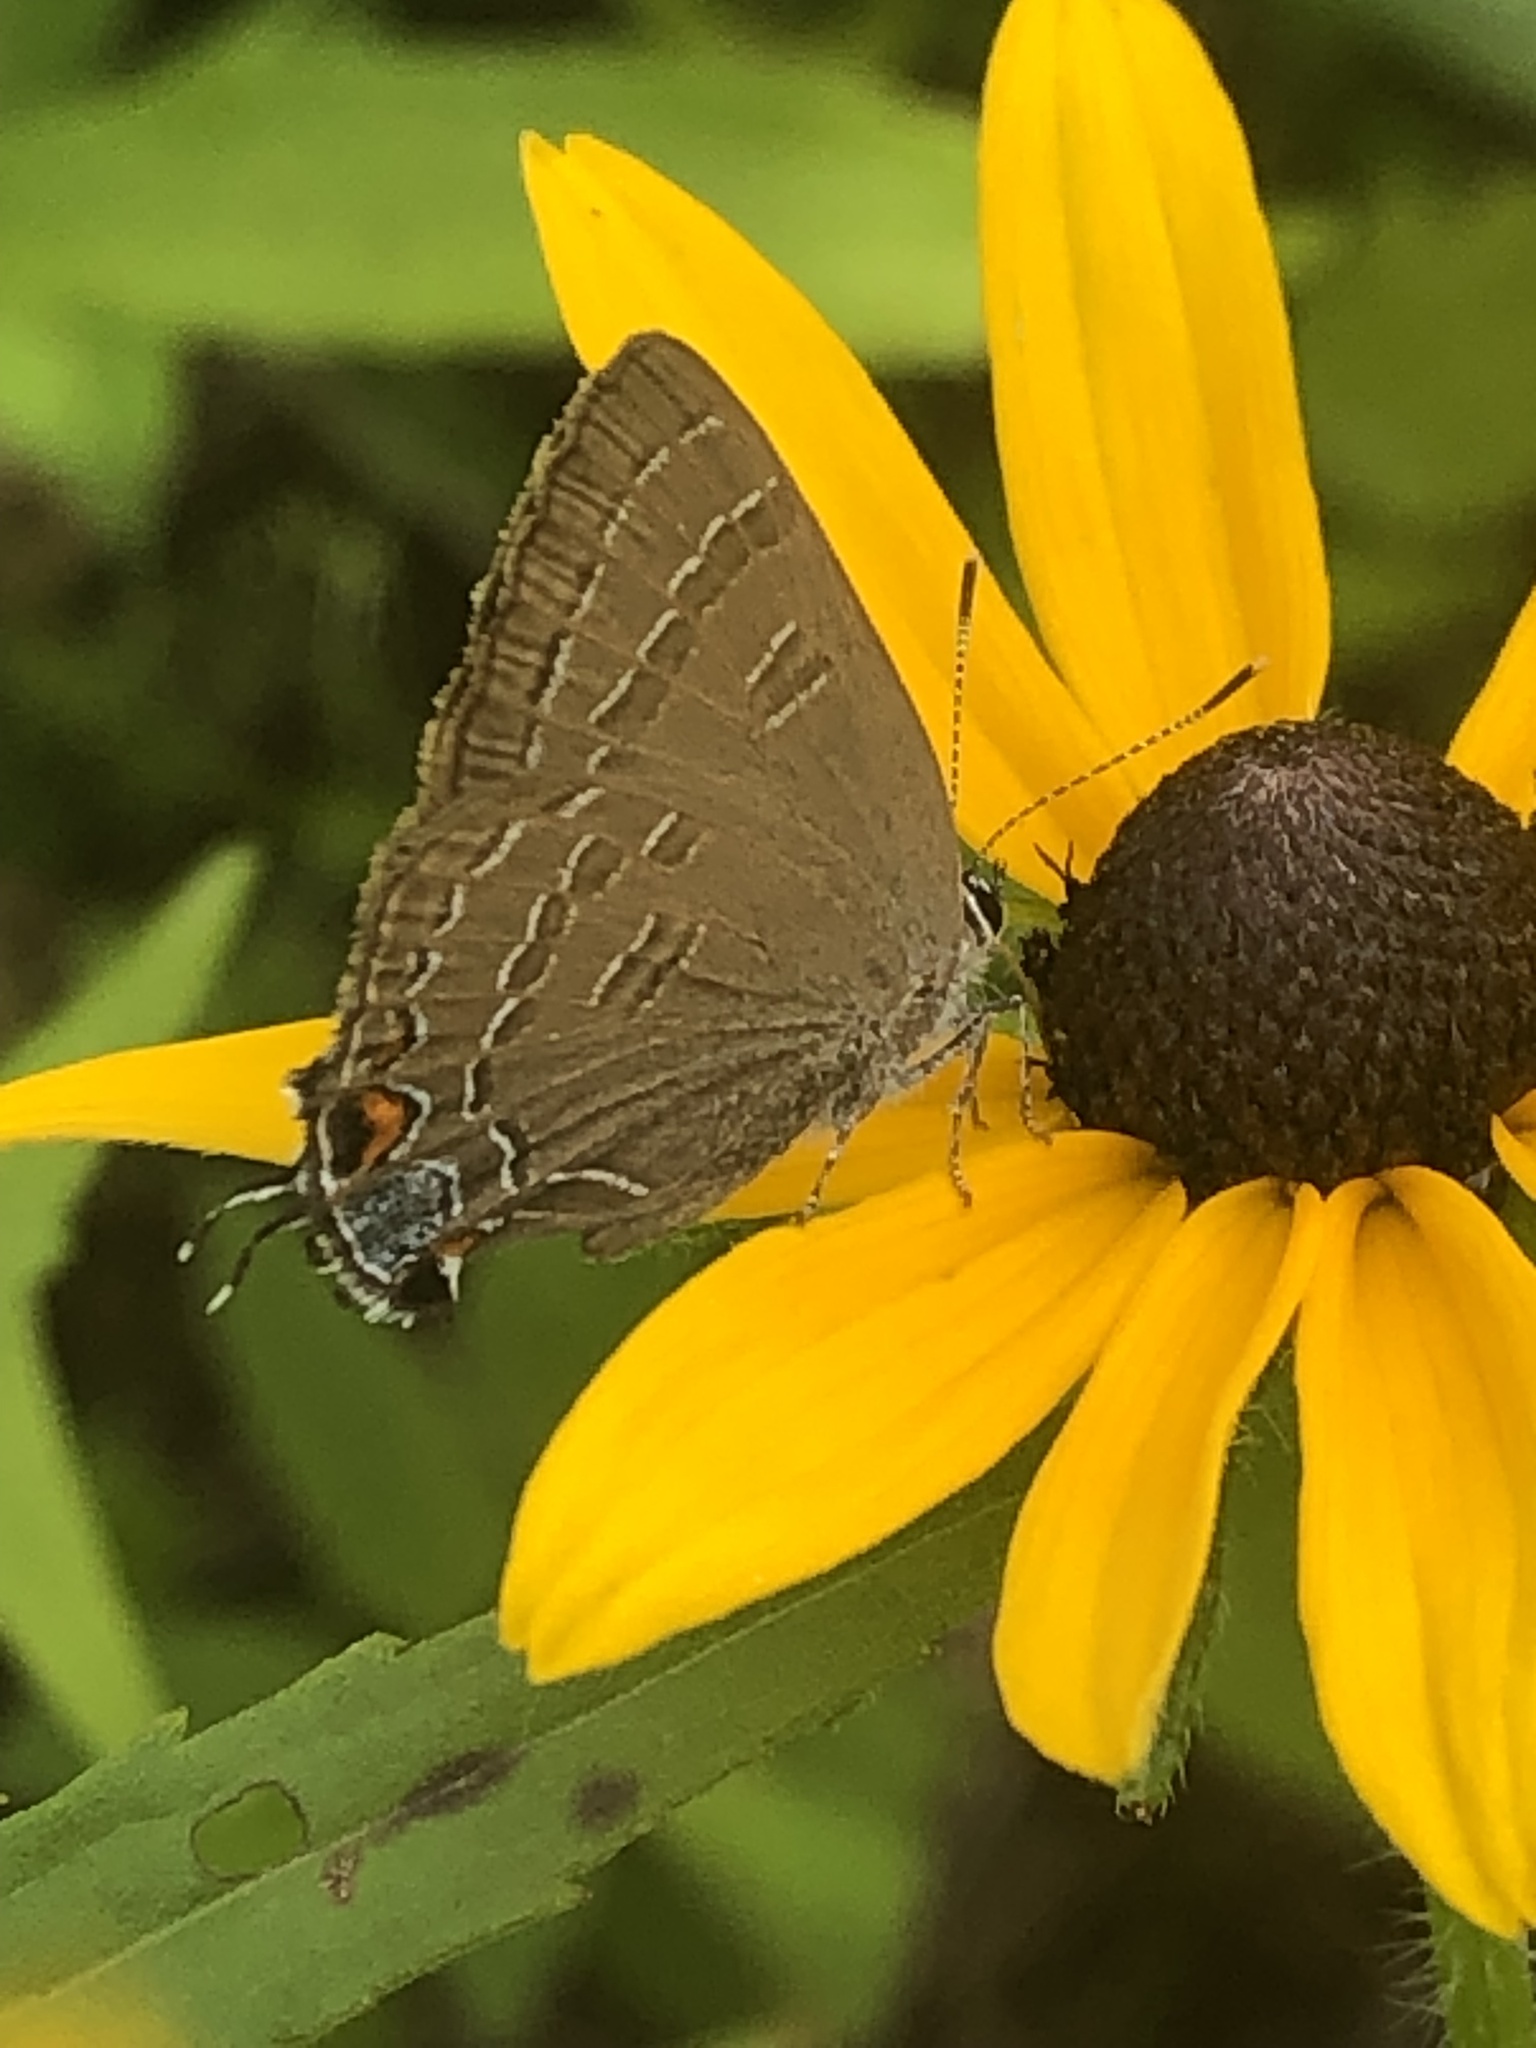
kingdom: Animalia
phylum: Arthropoda
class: Insecta
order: Lepidoptera
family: Lycaenidae
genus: Satyrium
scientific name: Satyrium calanus
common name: Banded hairstreak
